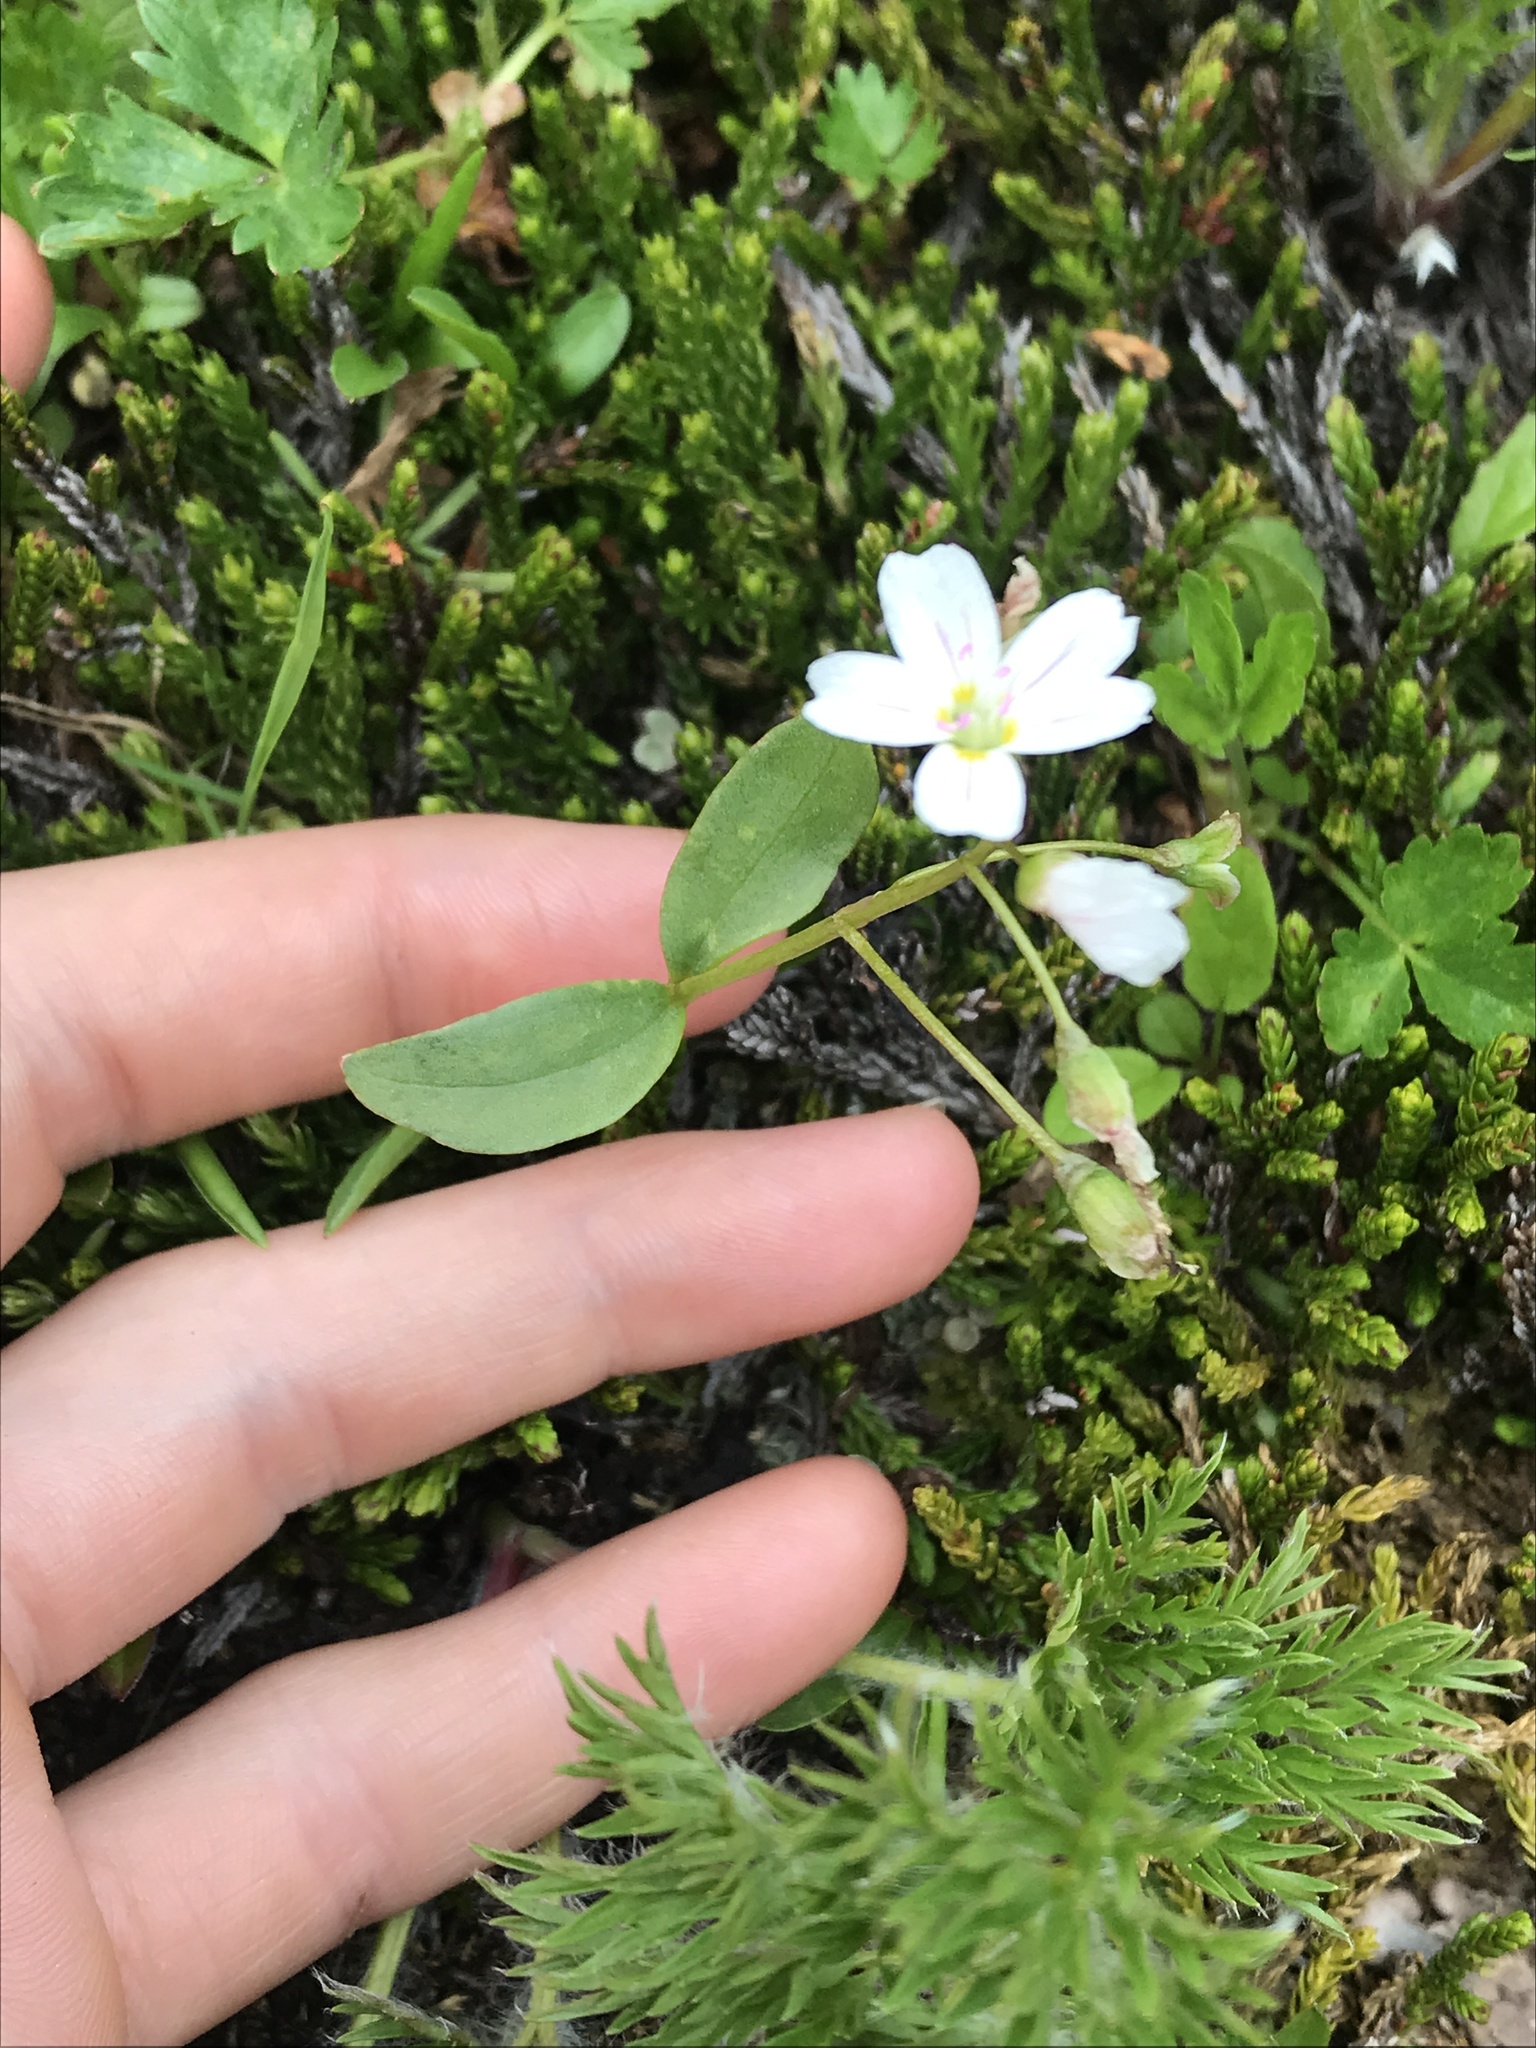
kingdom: Plantae
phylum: Tracheophyta
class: Magnoliopsida
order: Caryophyllales
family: Montiaceae
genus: Claytonia
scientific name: Claytonia sibirica
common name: Pink purslane
